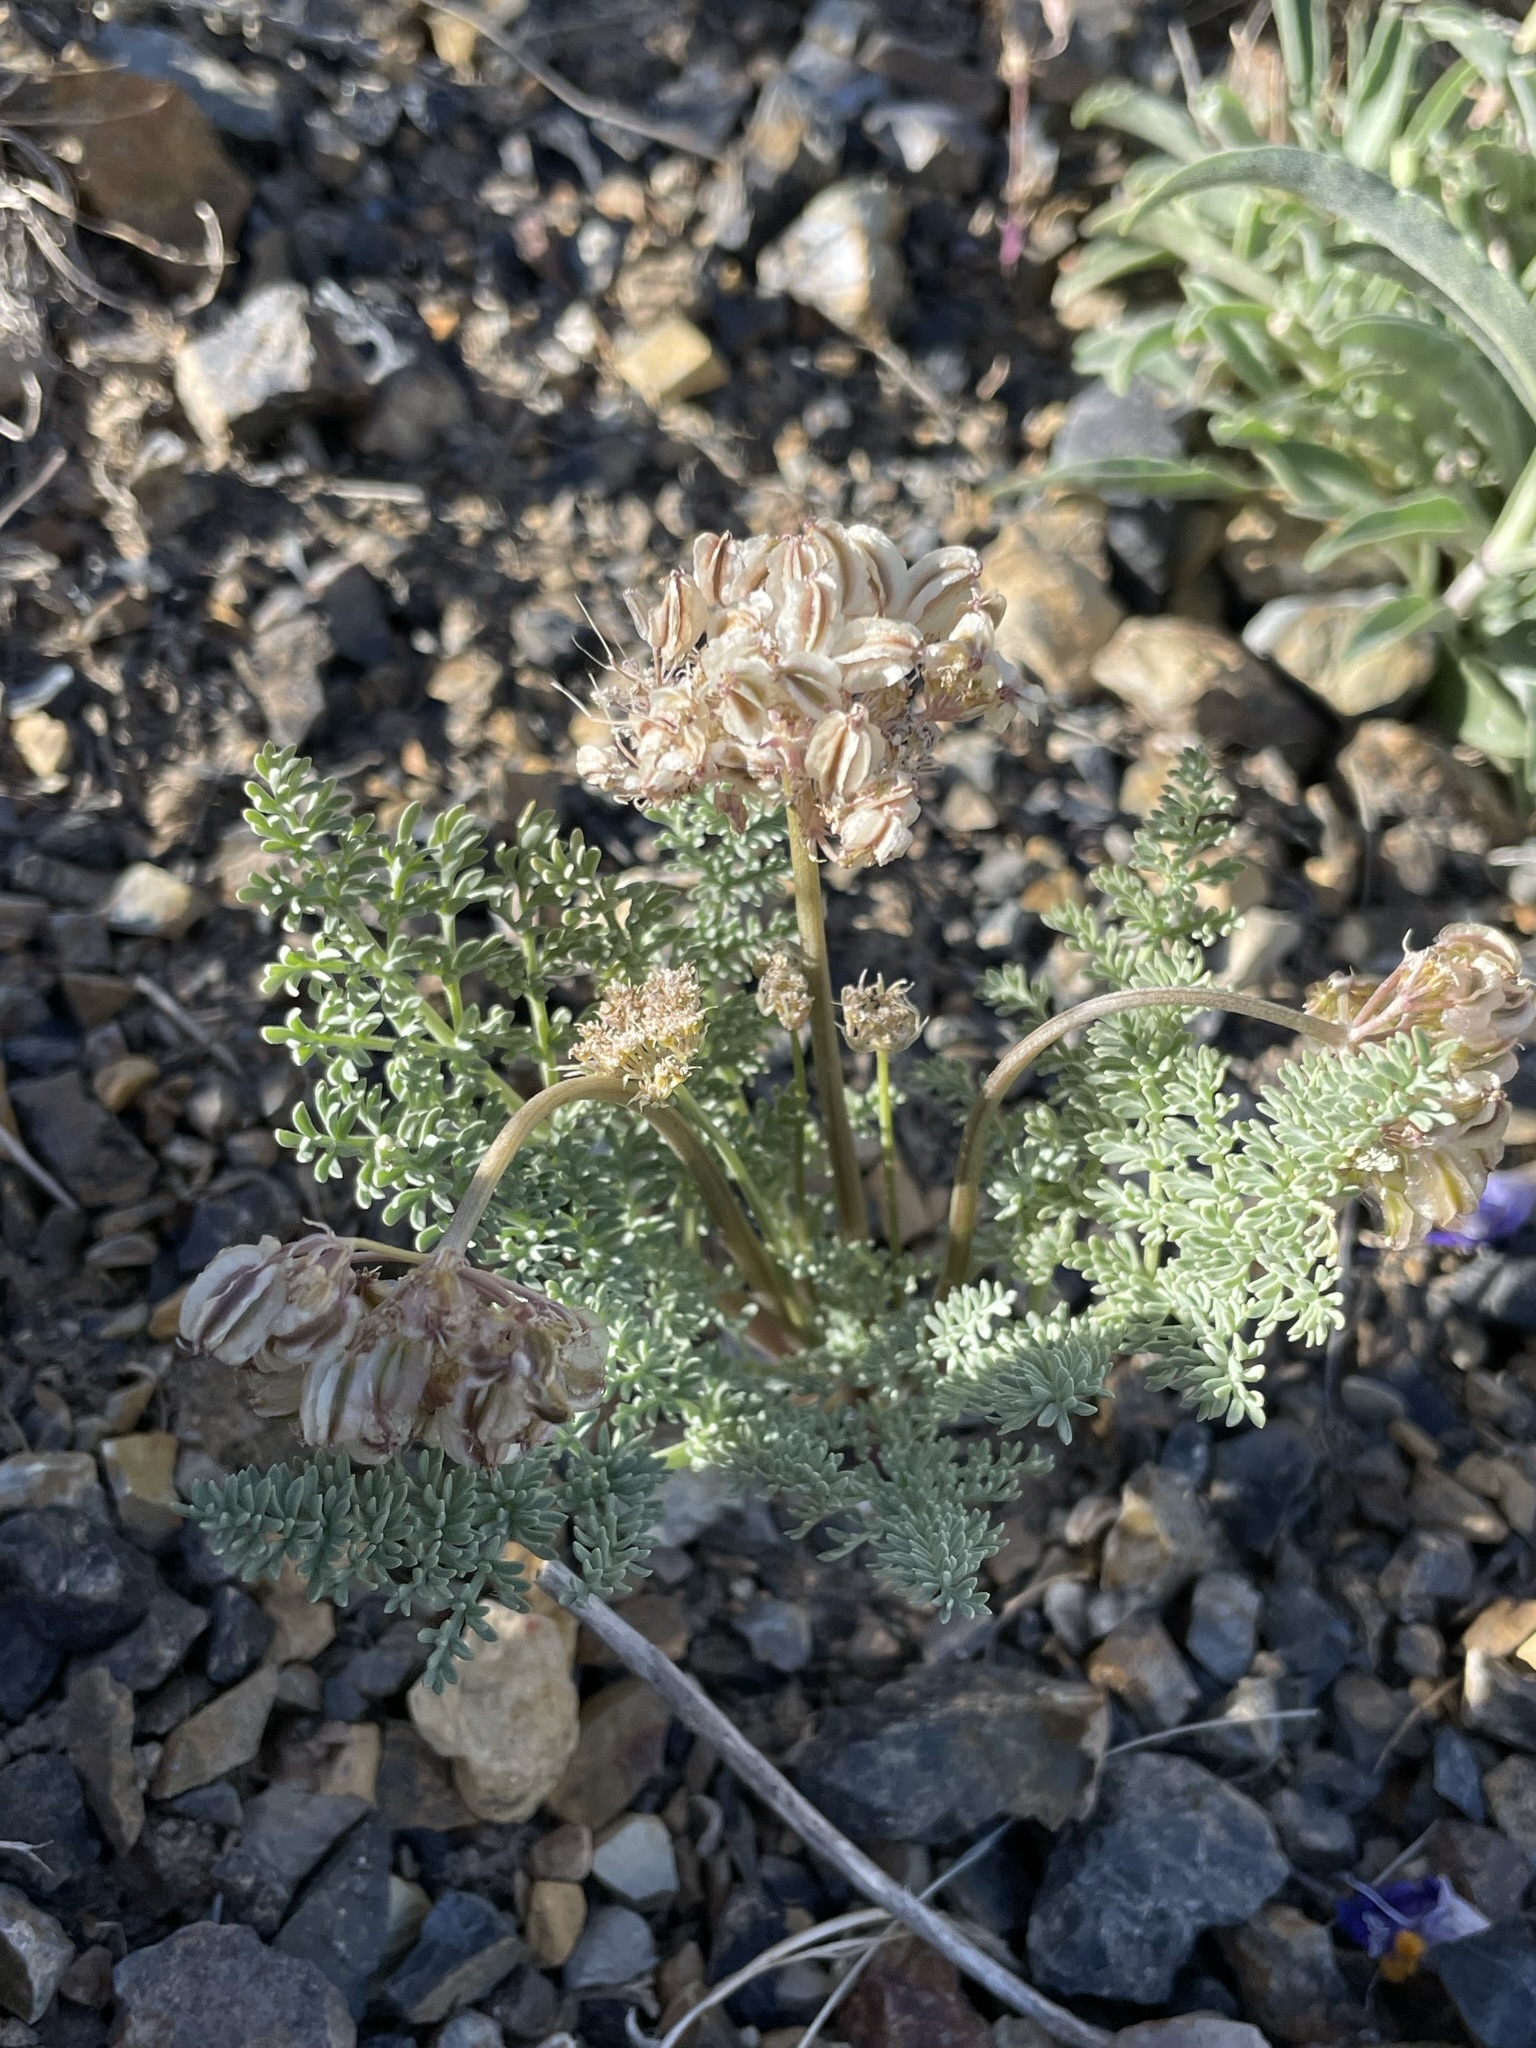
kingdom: Plantae
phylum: Tracheophyta
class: Magnoliopsida
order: Apiales
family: Apiaceae
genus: Aulospermum
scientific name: Aulospermum ibapense
